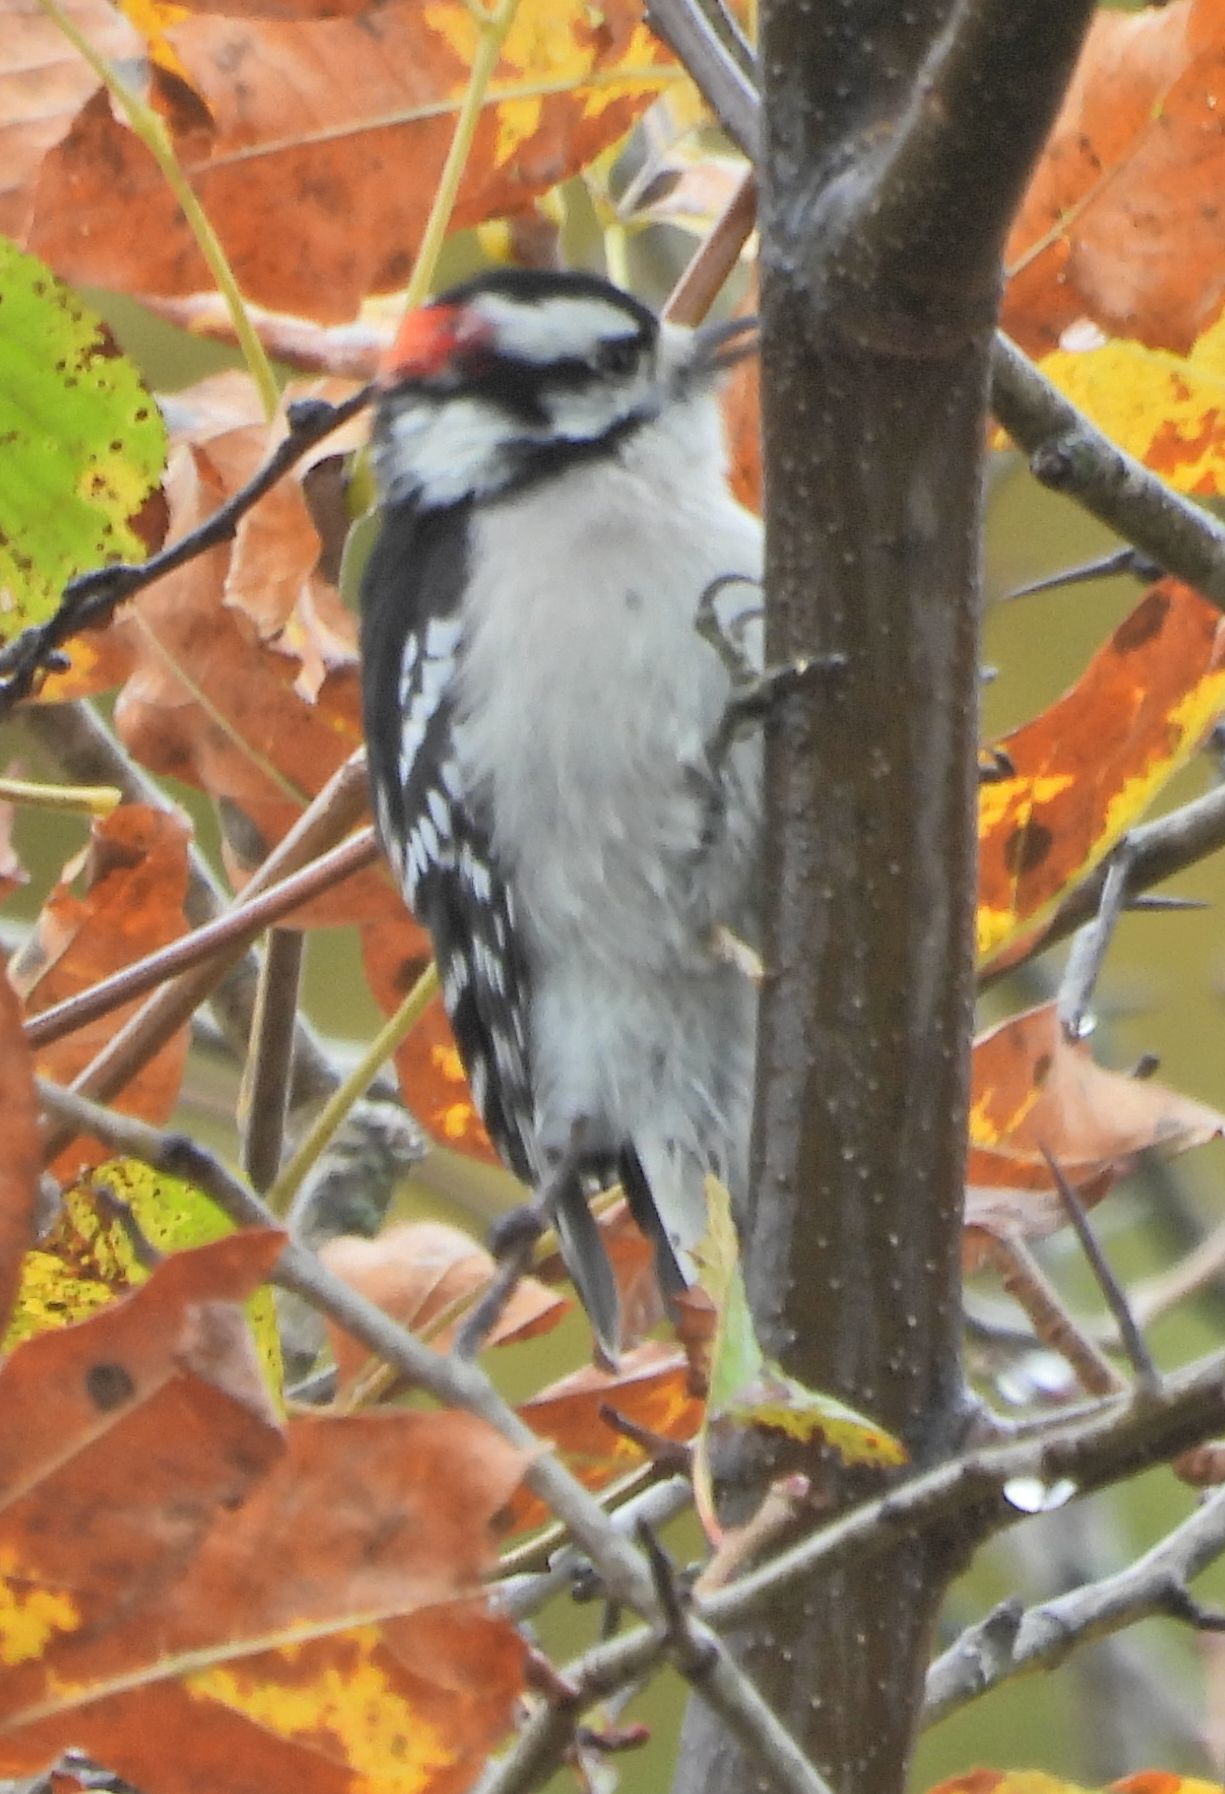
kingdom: Animalia
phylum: Chordata
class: Aves
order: Piciformes
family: Picidae
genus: Dryobates
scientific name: Dryobates pubescens
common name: Downy woodpecker
